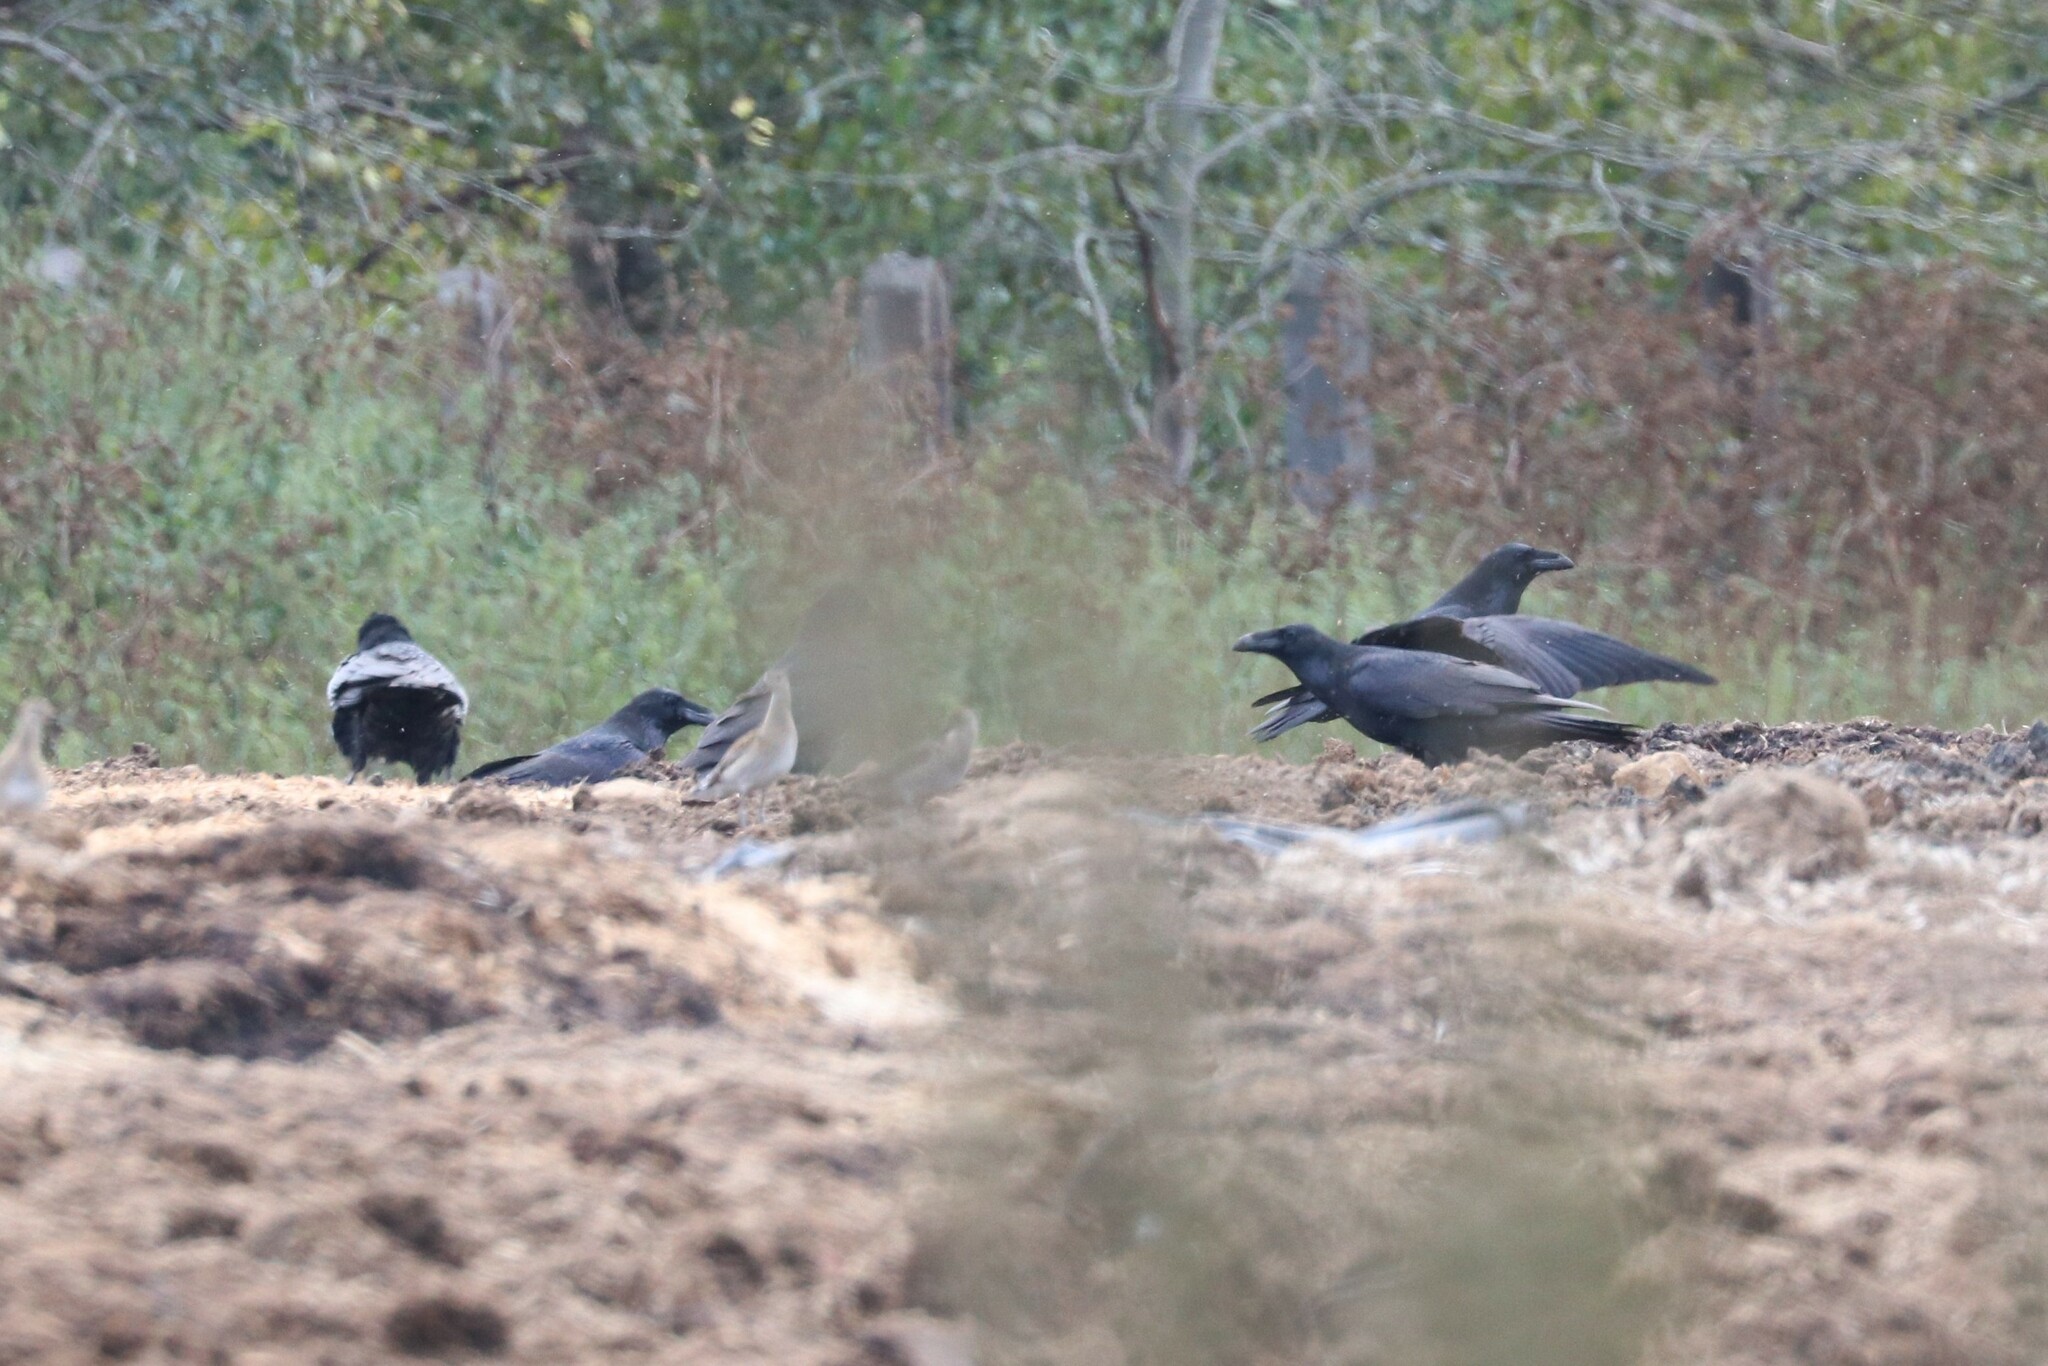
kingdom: Animalia
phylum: Chordata
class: Aves
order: Passeriformes
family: Corvidae
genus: Corvus
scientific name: Corvus corax
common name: Common raven
